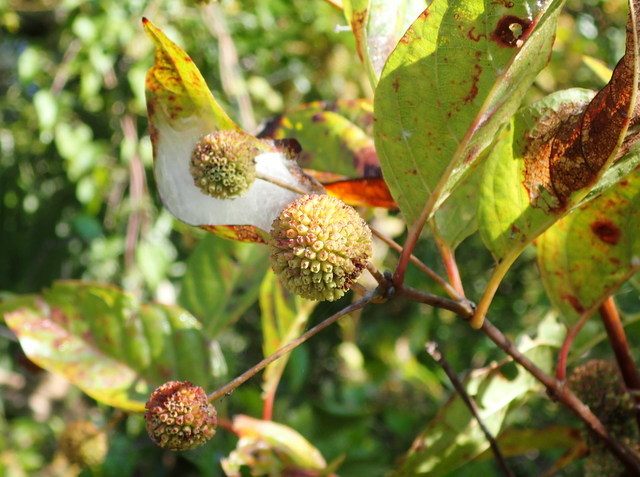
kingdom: Plantae
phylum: Tracheophyta
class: Magnoliopsida
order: Gentianales
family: Rubiaceae
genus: Cephalanthus
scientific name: Cephalanthus occidentalis
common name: Button-willow
